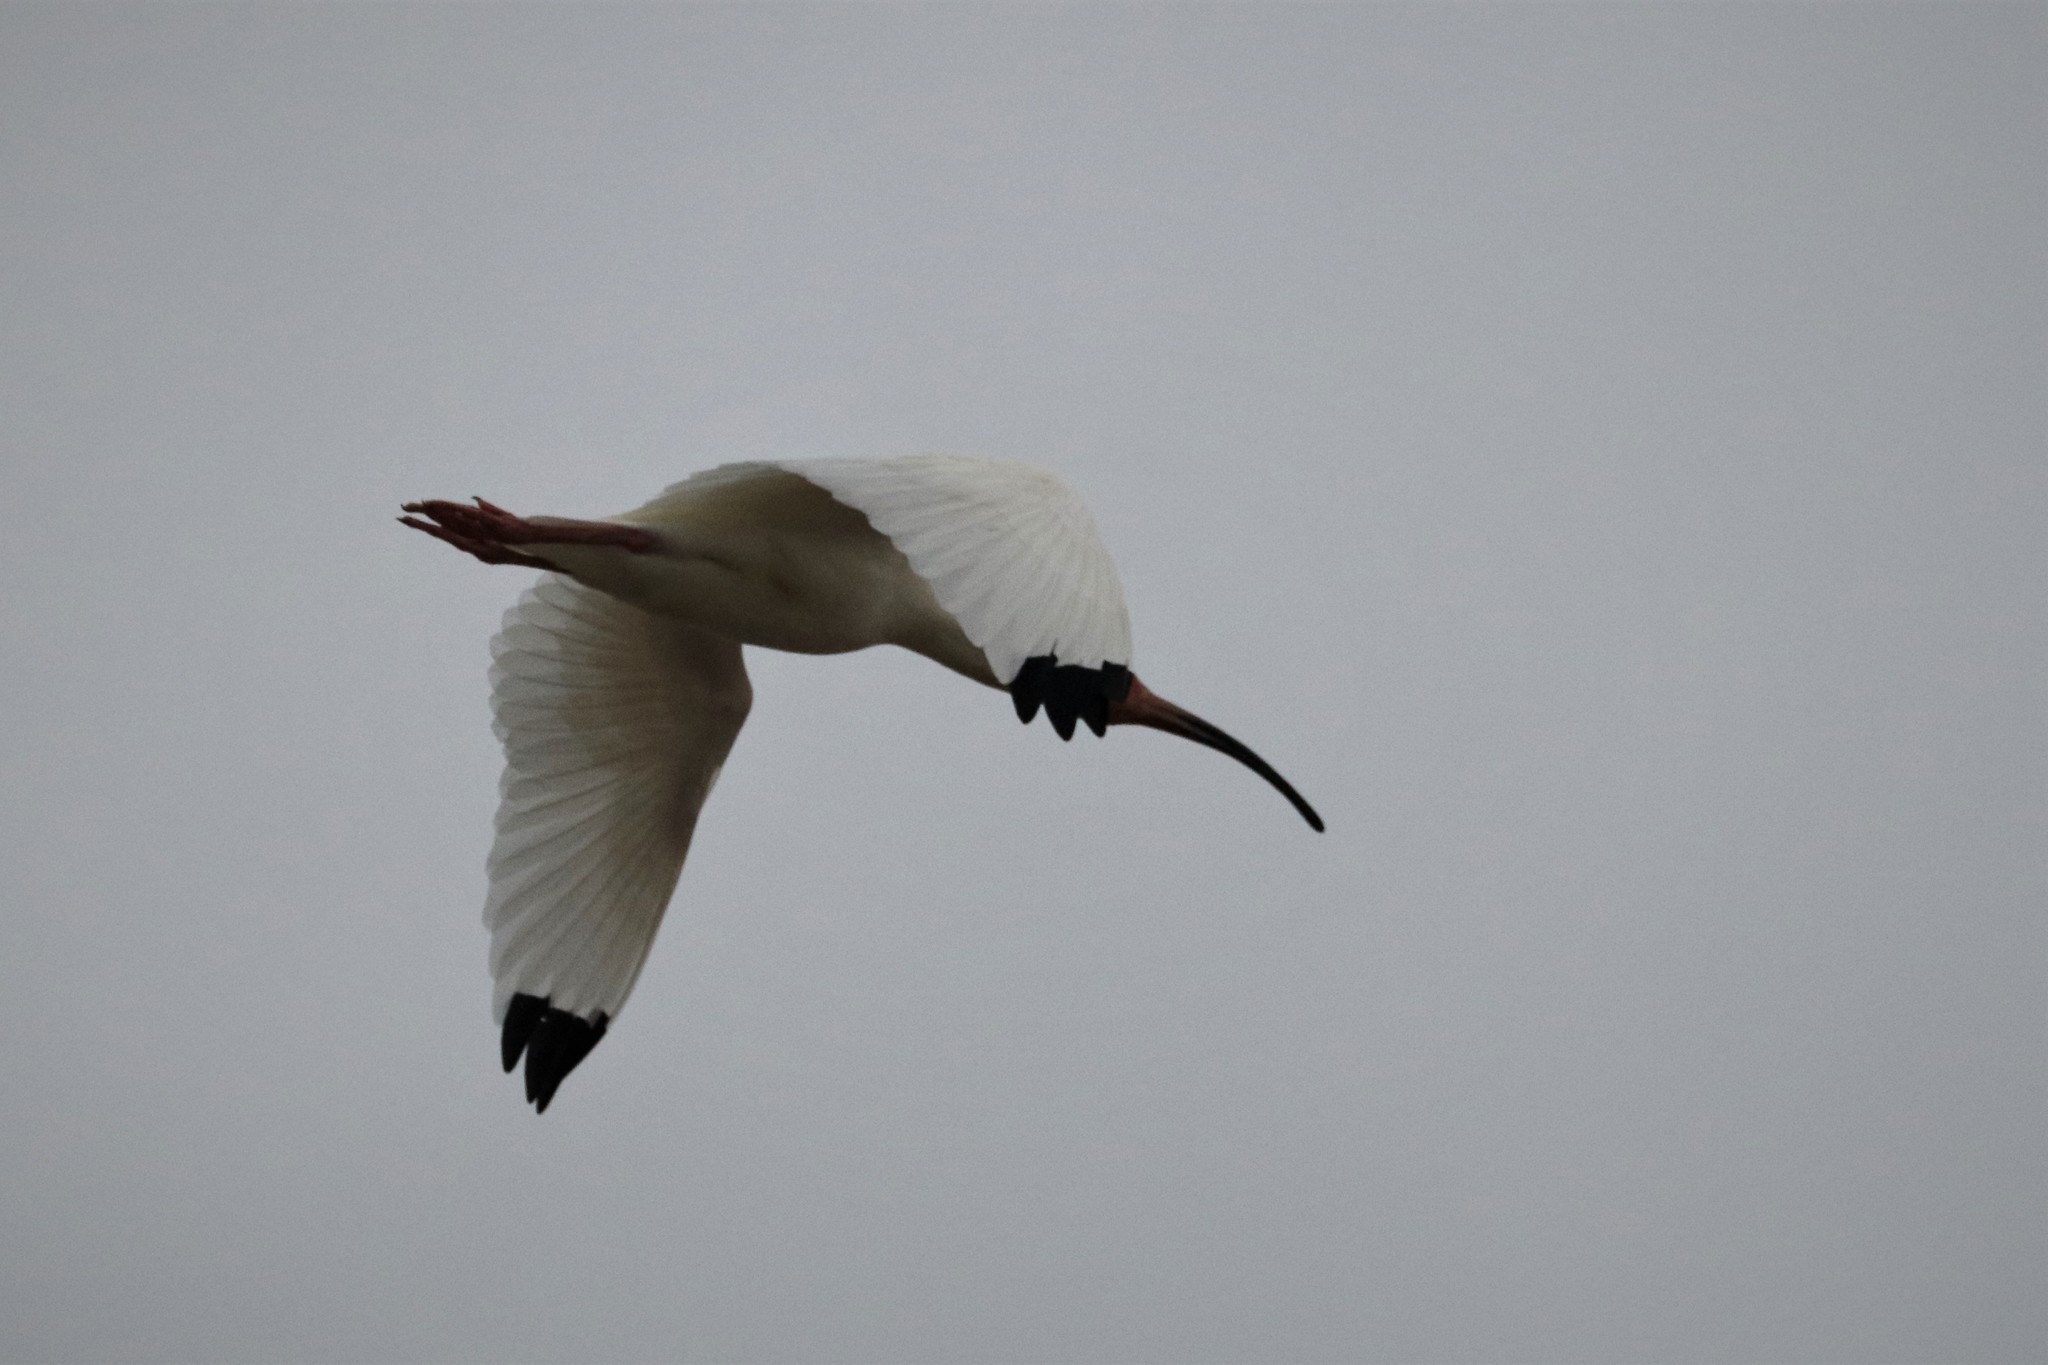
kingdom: Animalia
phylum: Chordata
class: Aves
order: Pelecaniformes
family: Threskiornithidae
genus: Eudocimus
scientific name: Eudocimus albus
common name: White ibis
